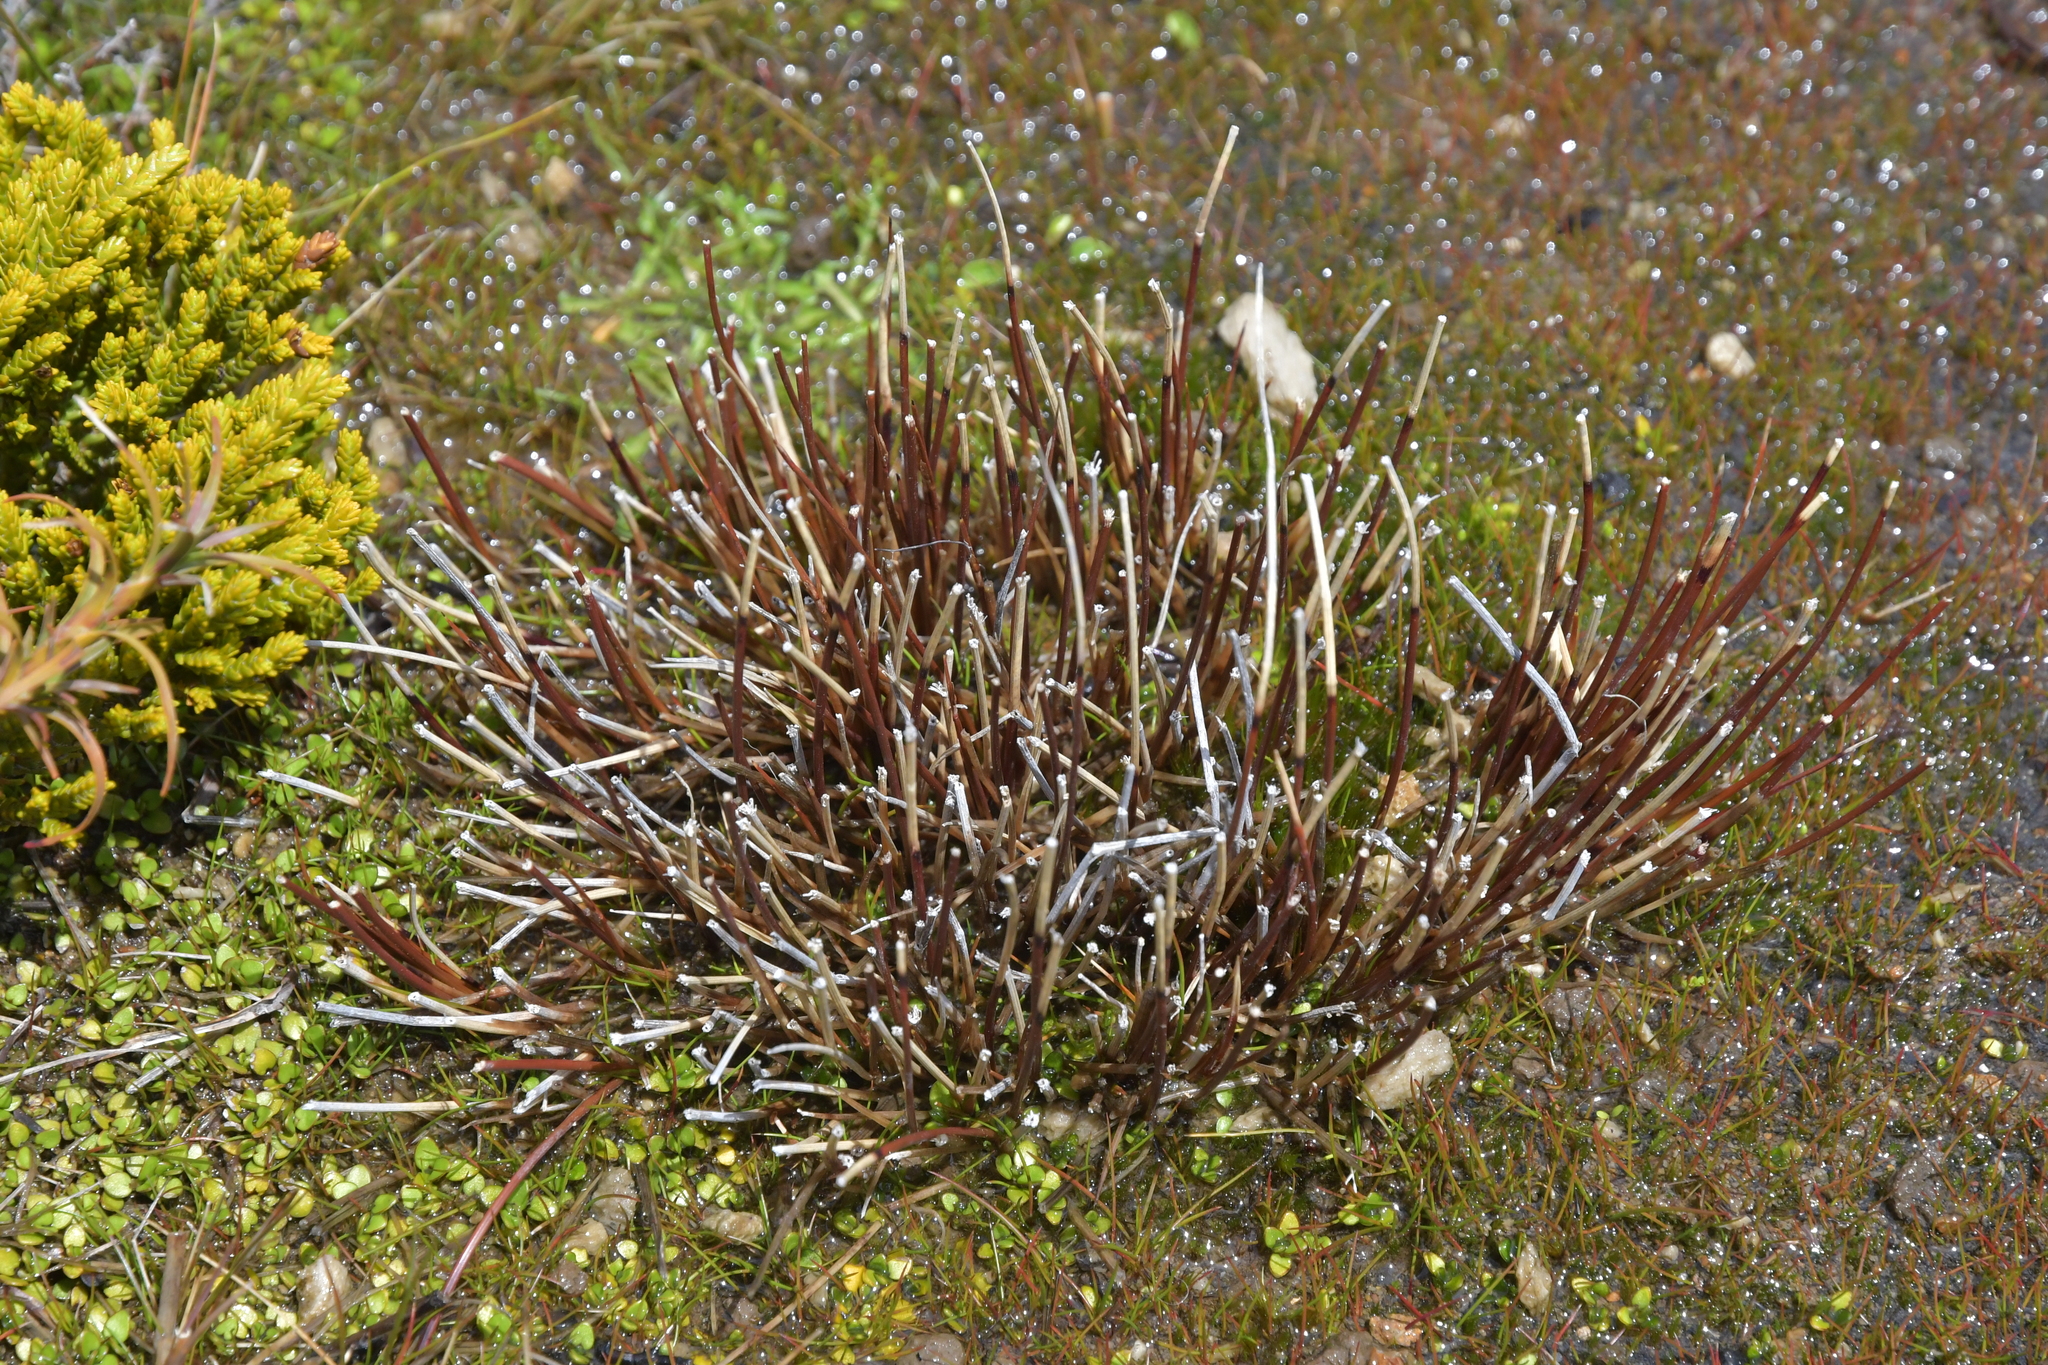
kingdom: Plantae
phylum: Tracheophyta
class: Liliopsida
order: Poales
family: Cyperaceae
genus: Schoenus
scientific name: Schoenus pauciflorus
